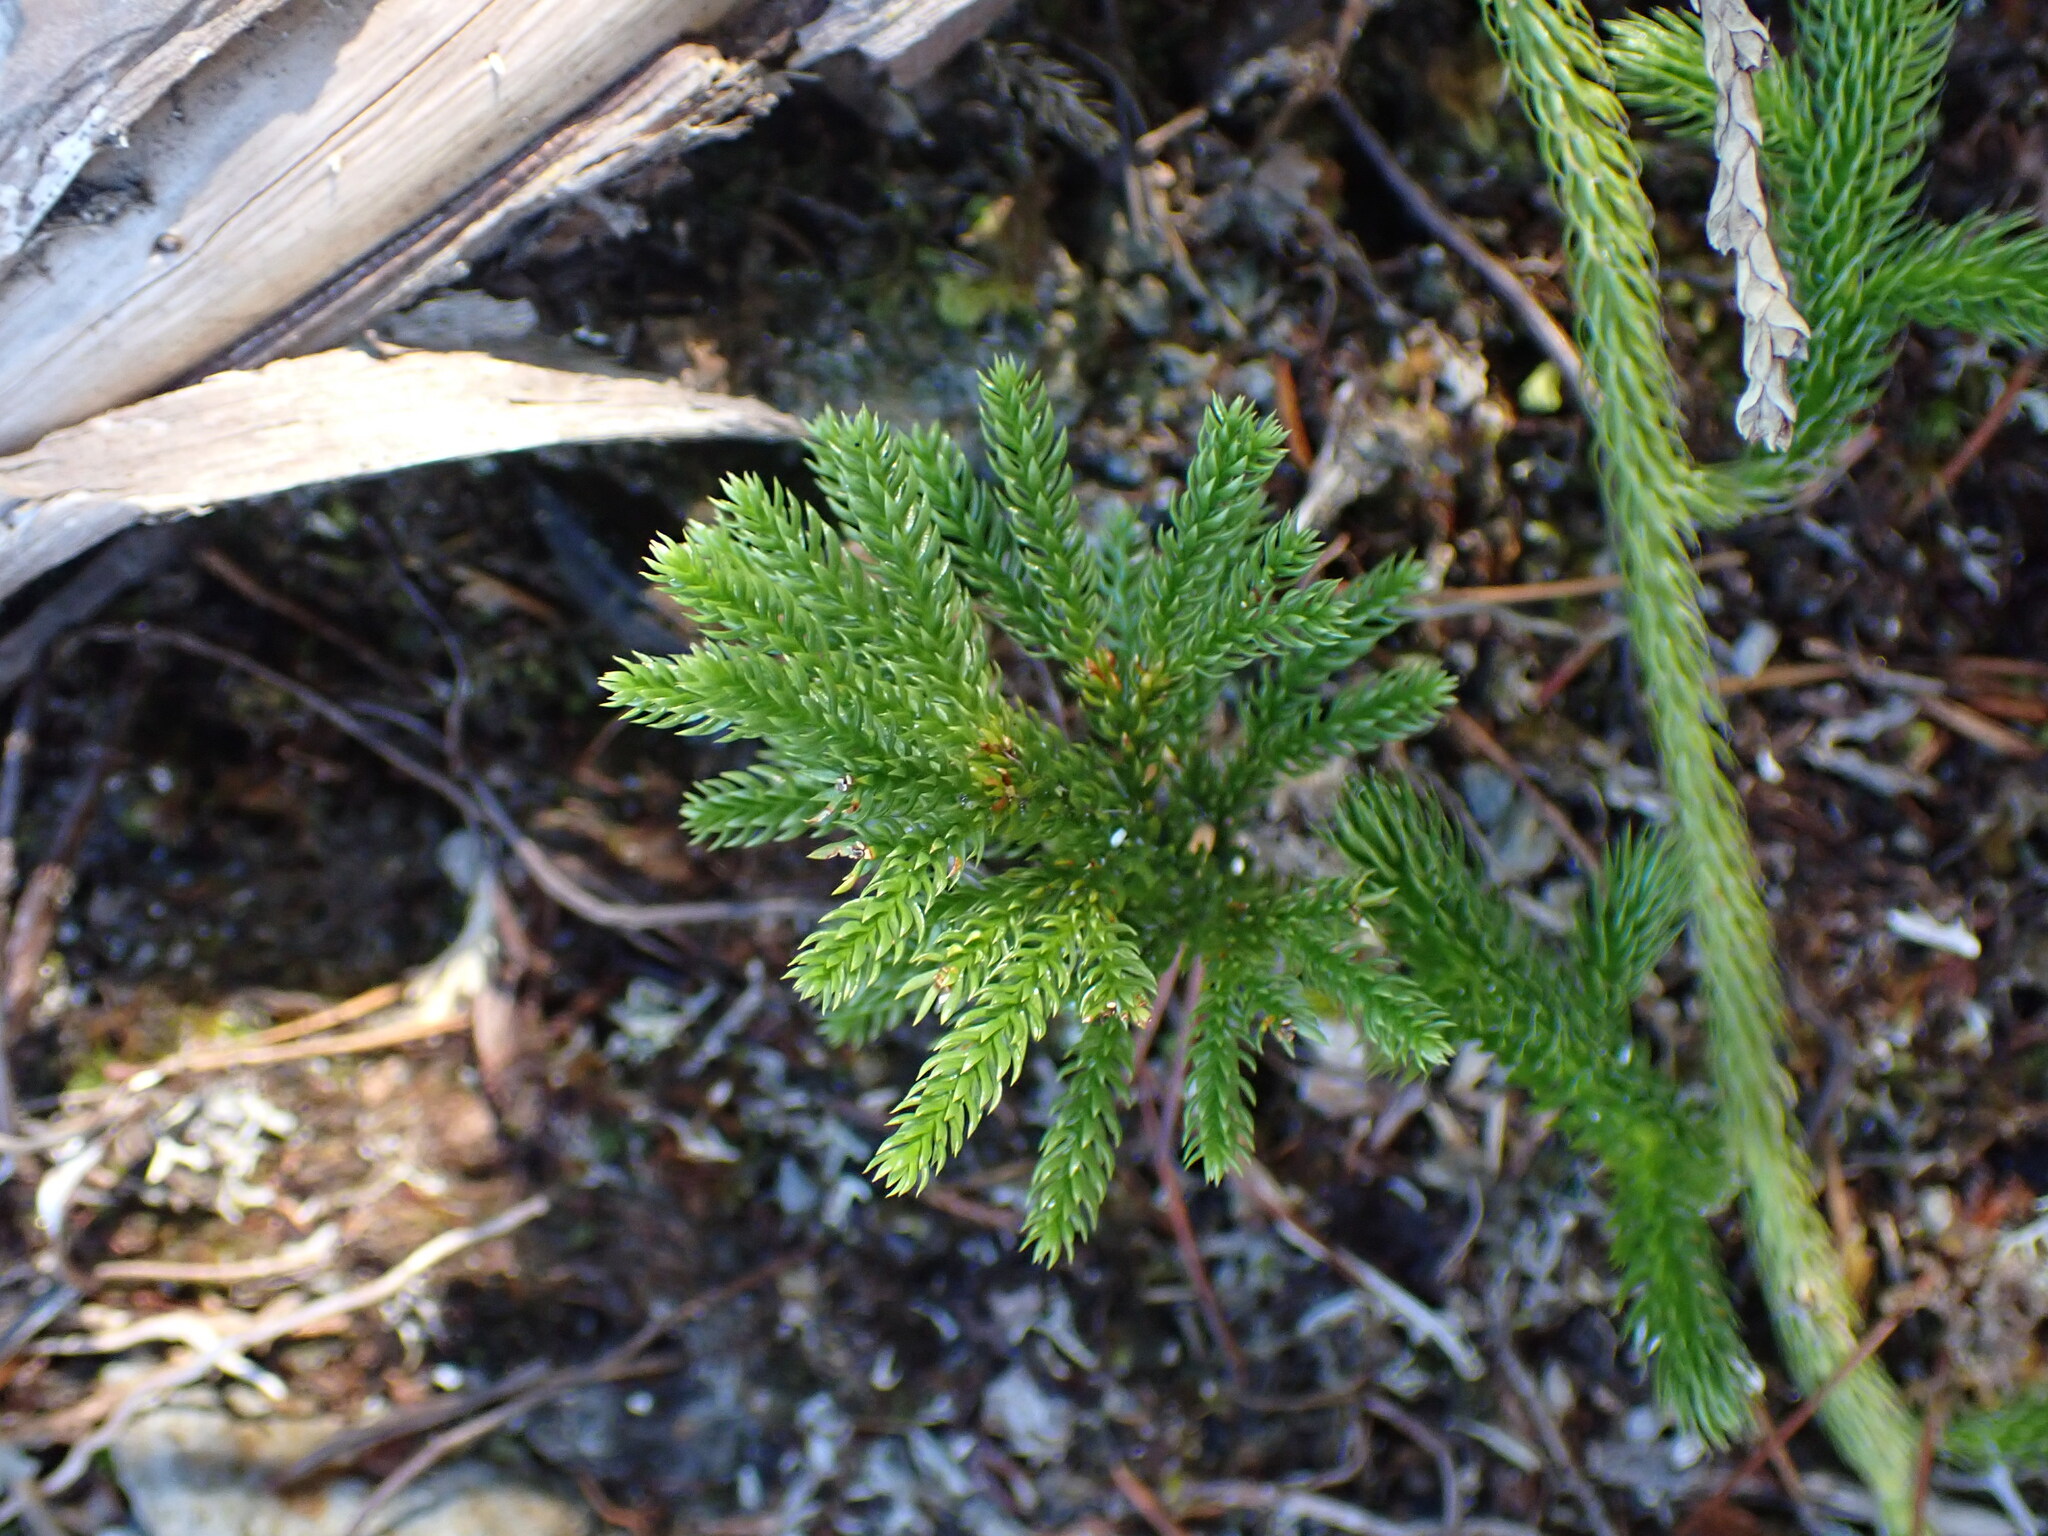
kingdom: Plantae
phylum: Tracheophyta
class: Lycopodiopsida
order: Lycopodiales
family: Lycopodiaceae
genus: Dendrolycopodium
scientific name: Dendrolycopodium dendroideum
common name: Northern tree-clubmoss
